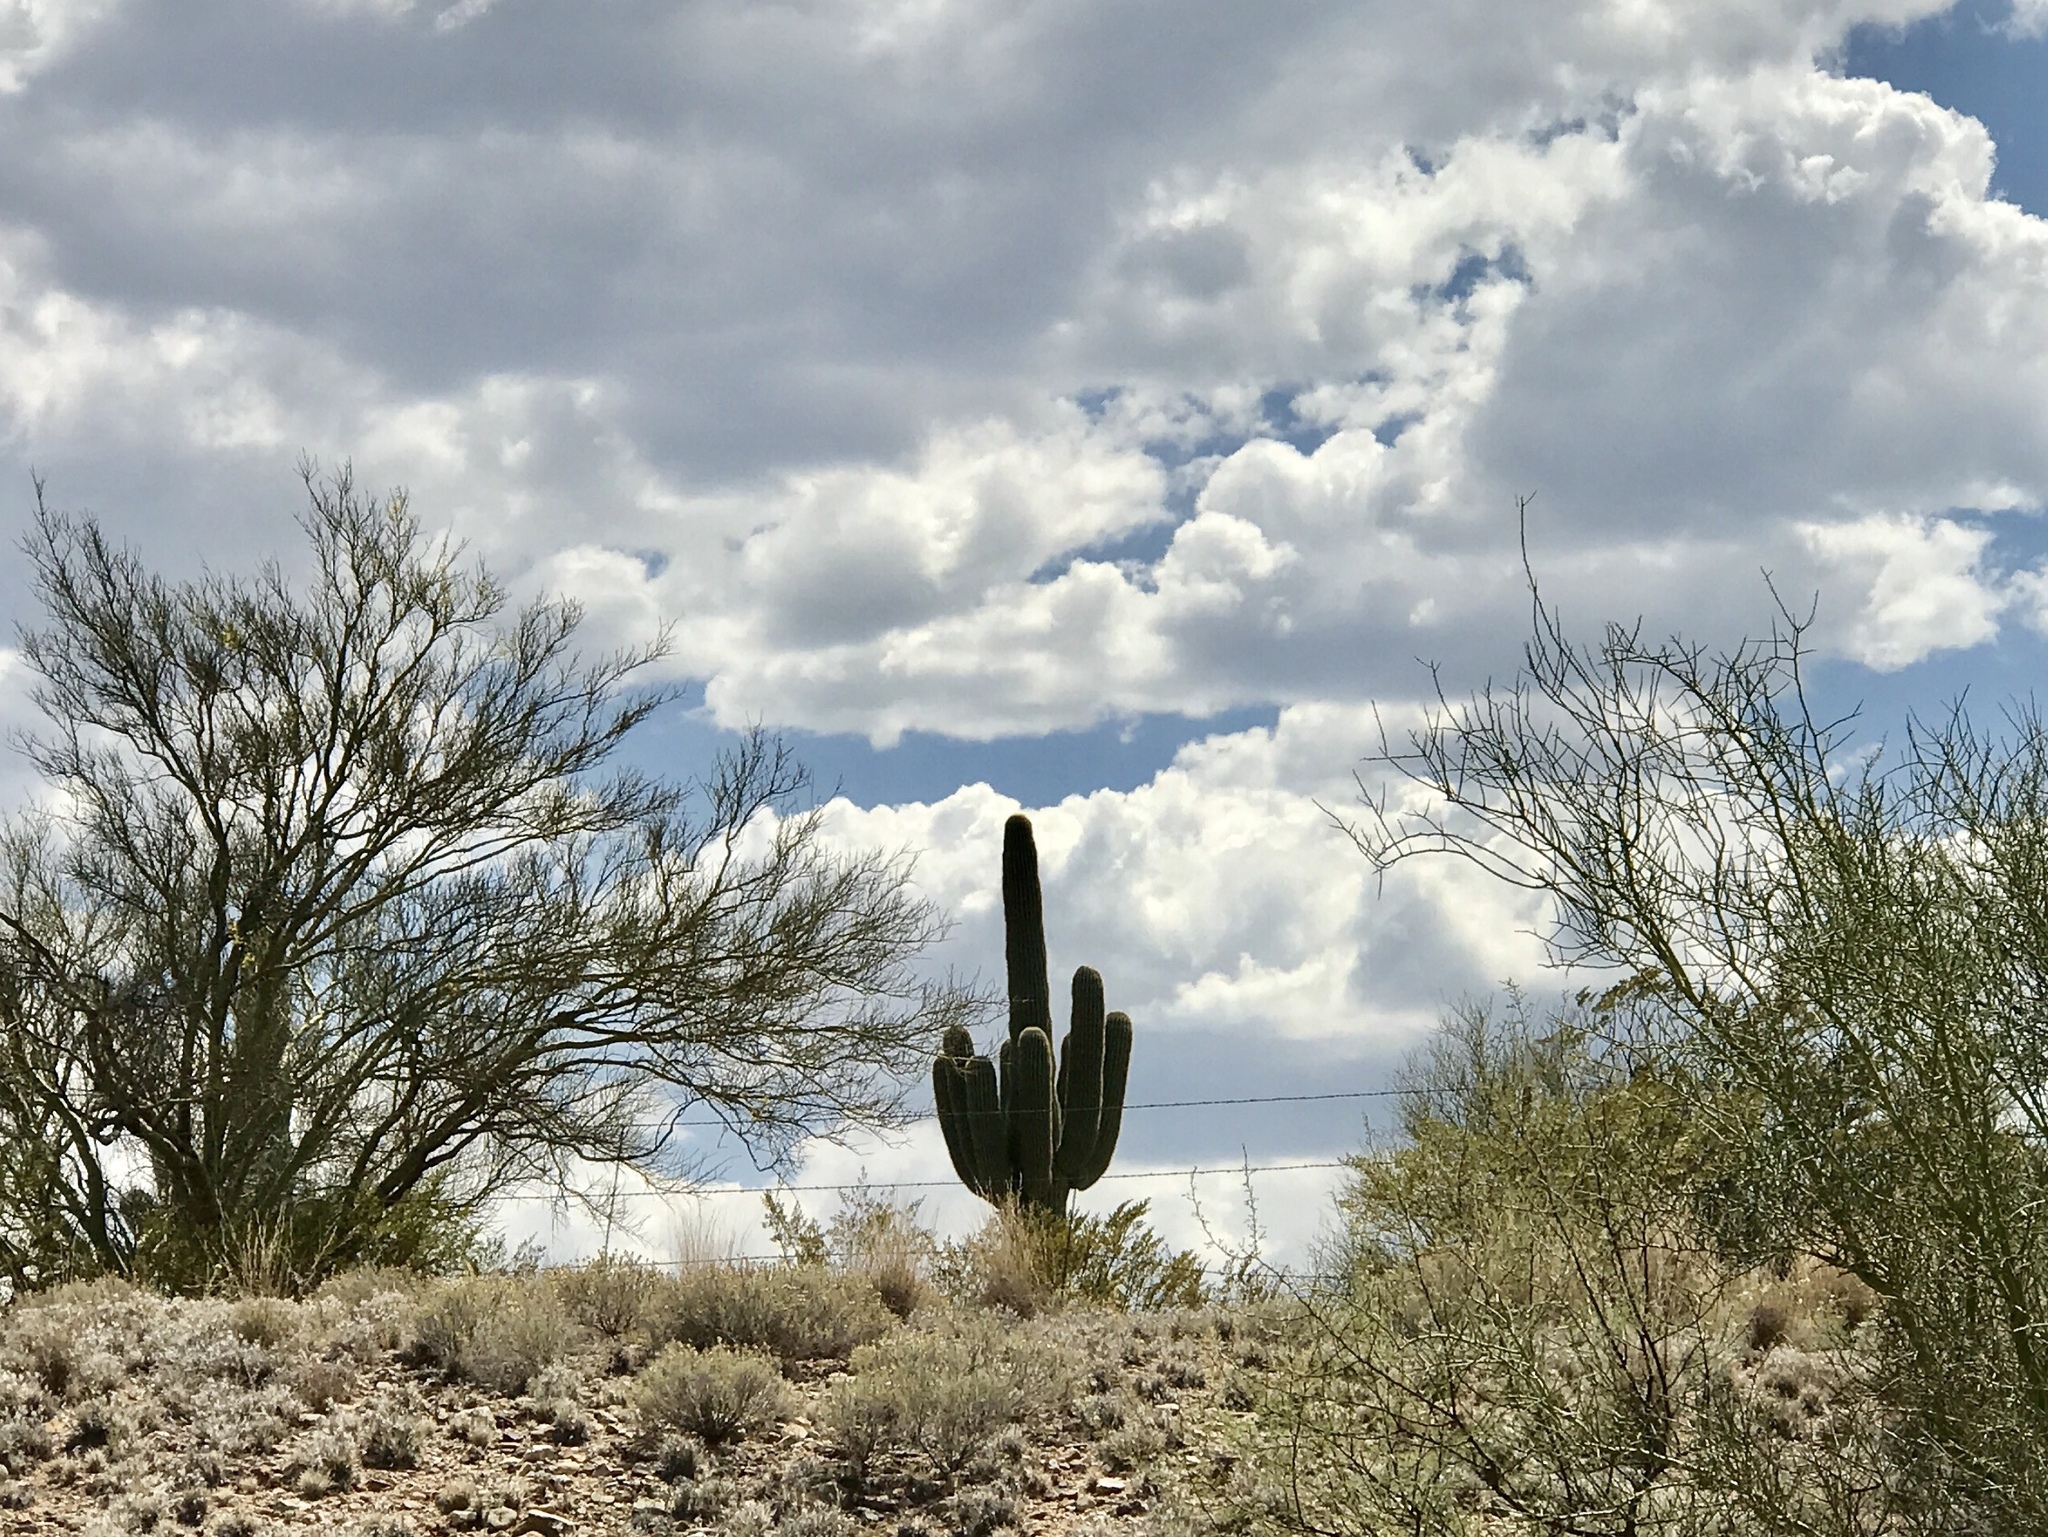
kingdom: Plantae
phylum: Tracheophyta
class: Magnoliopsida
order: Caryophyllales
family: Cactaceae
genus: Carnegiea
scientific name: Carnegiea gigantea
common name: Saguaro
